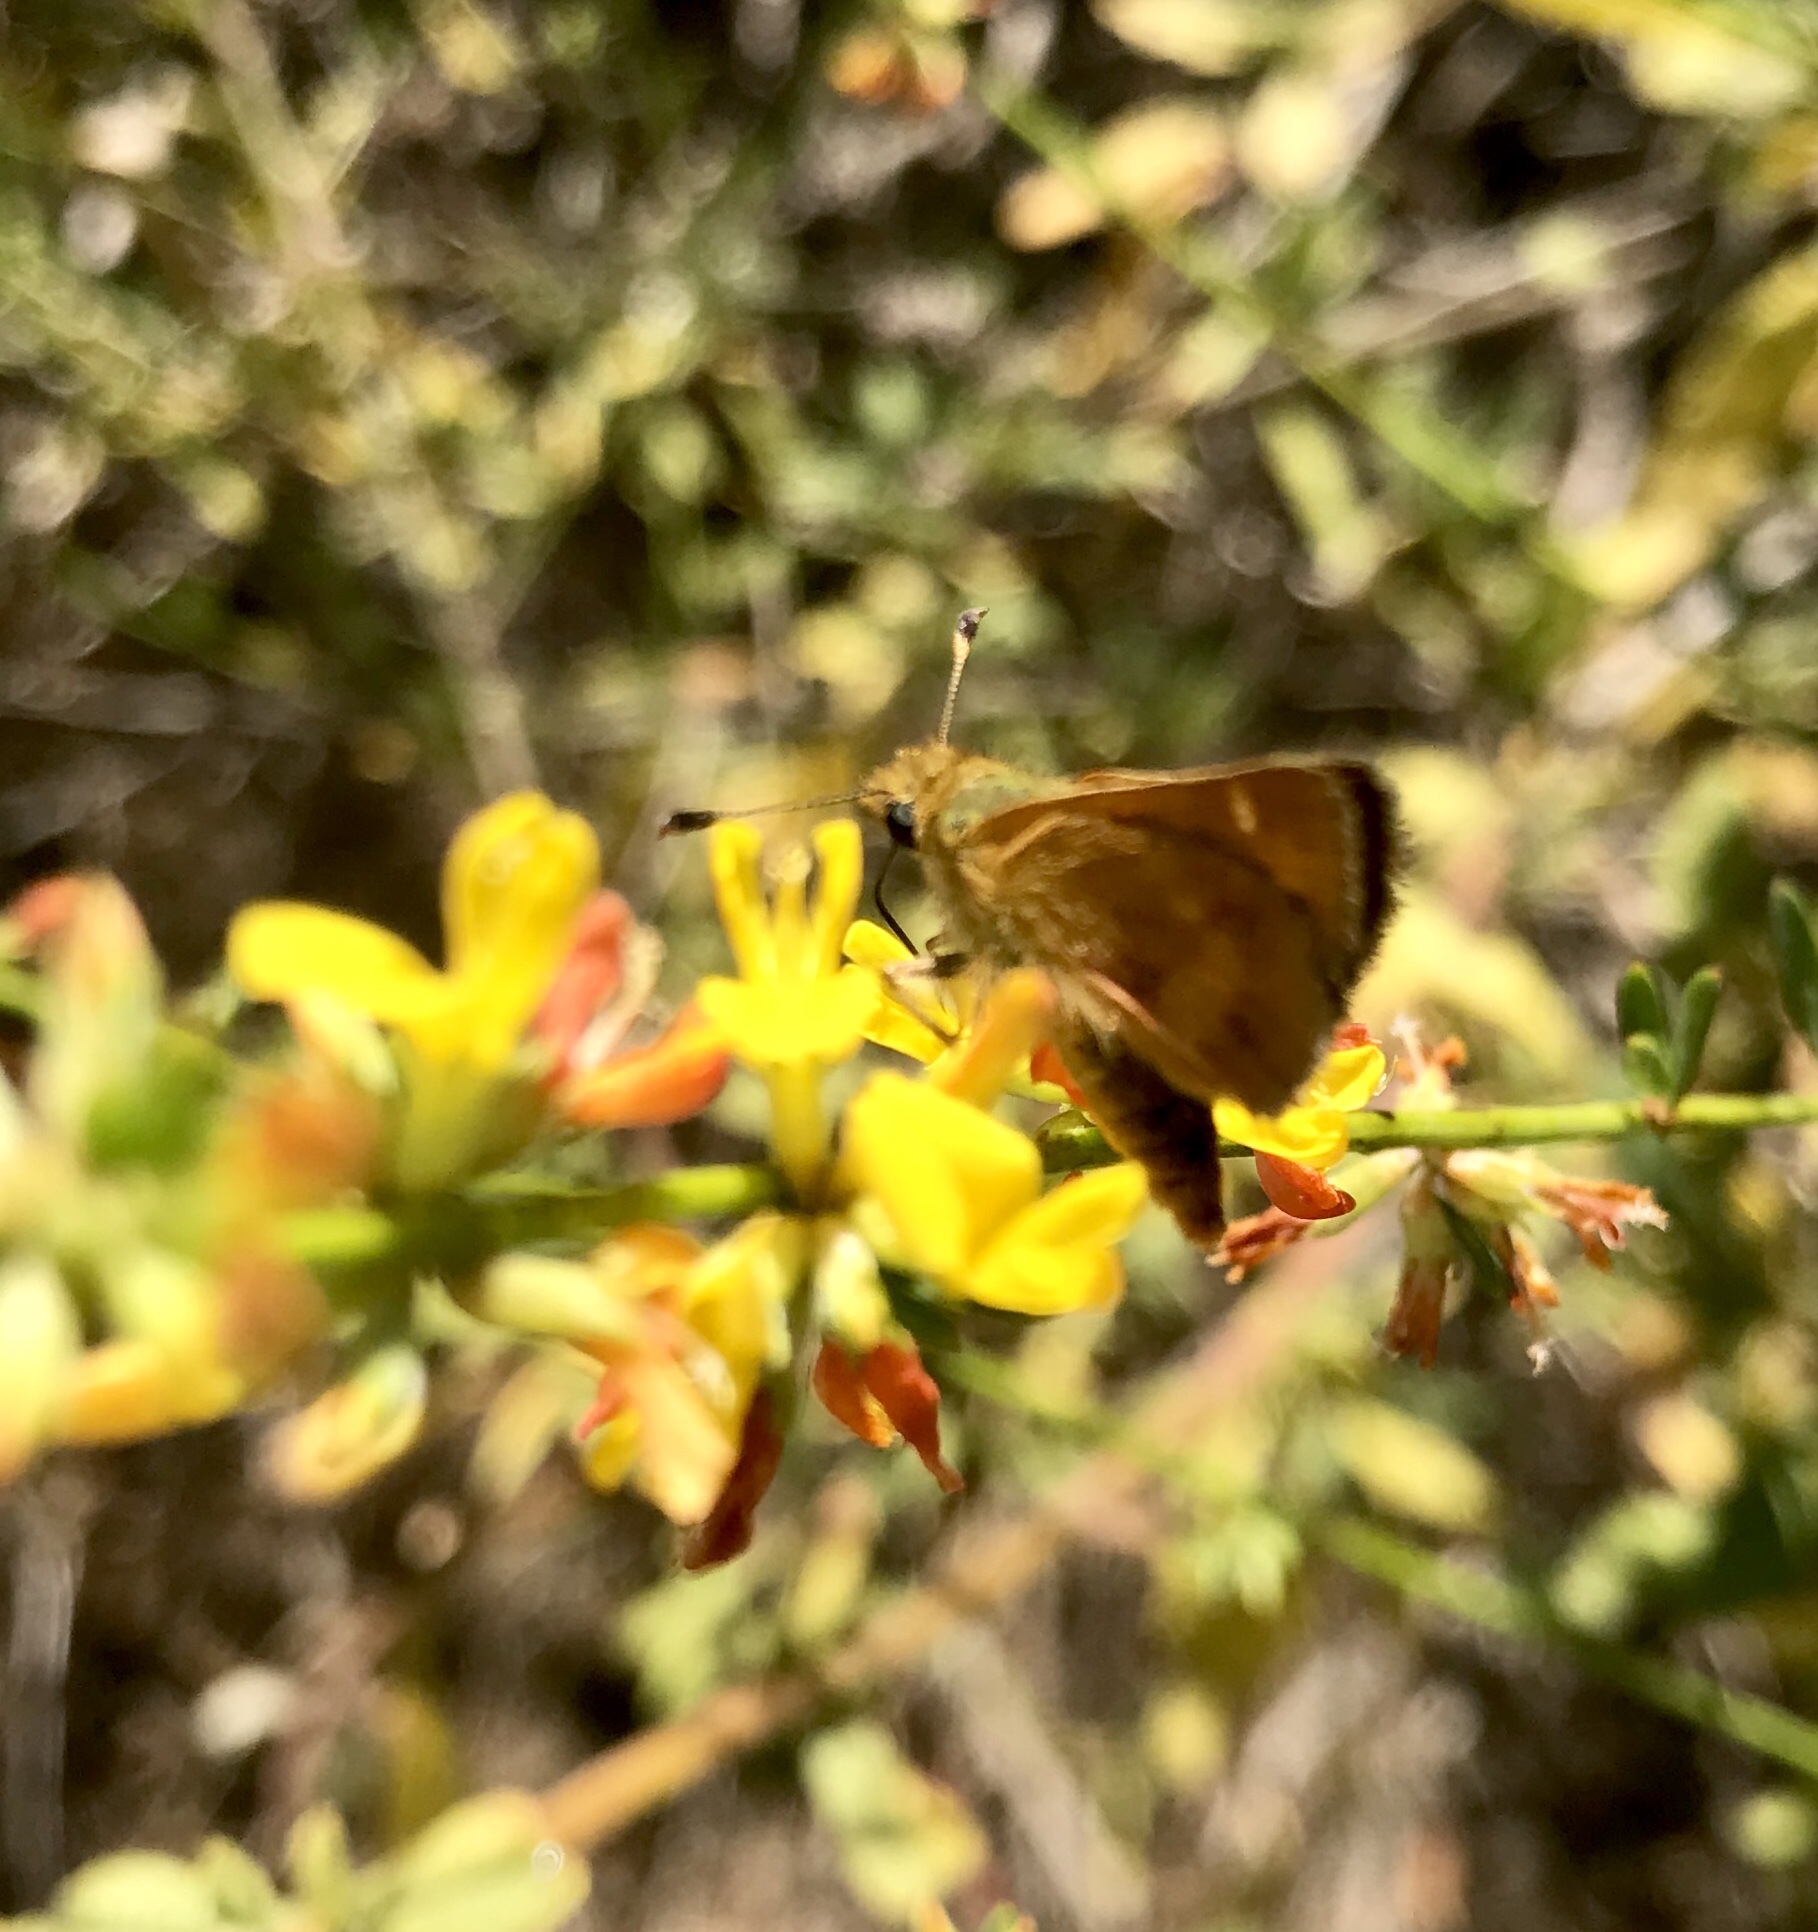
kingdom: Animalia
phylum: Arthropoda
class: Insecta
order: Lepidoptera
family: Hesperiidae
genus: Ochlodes
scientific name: Ochlodes agricola
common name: Rural skipper
